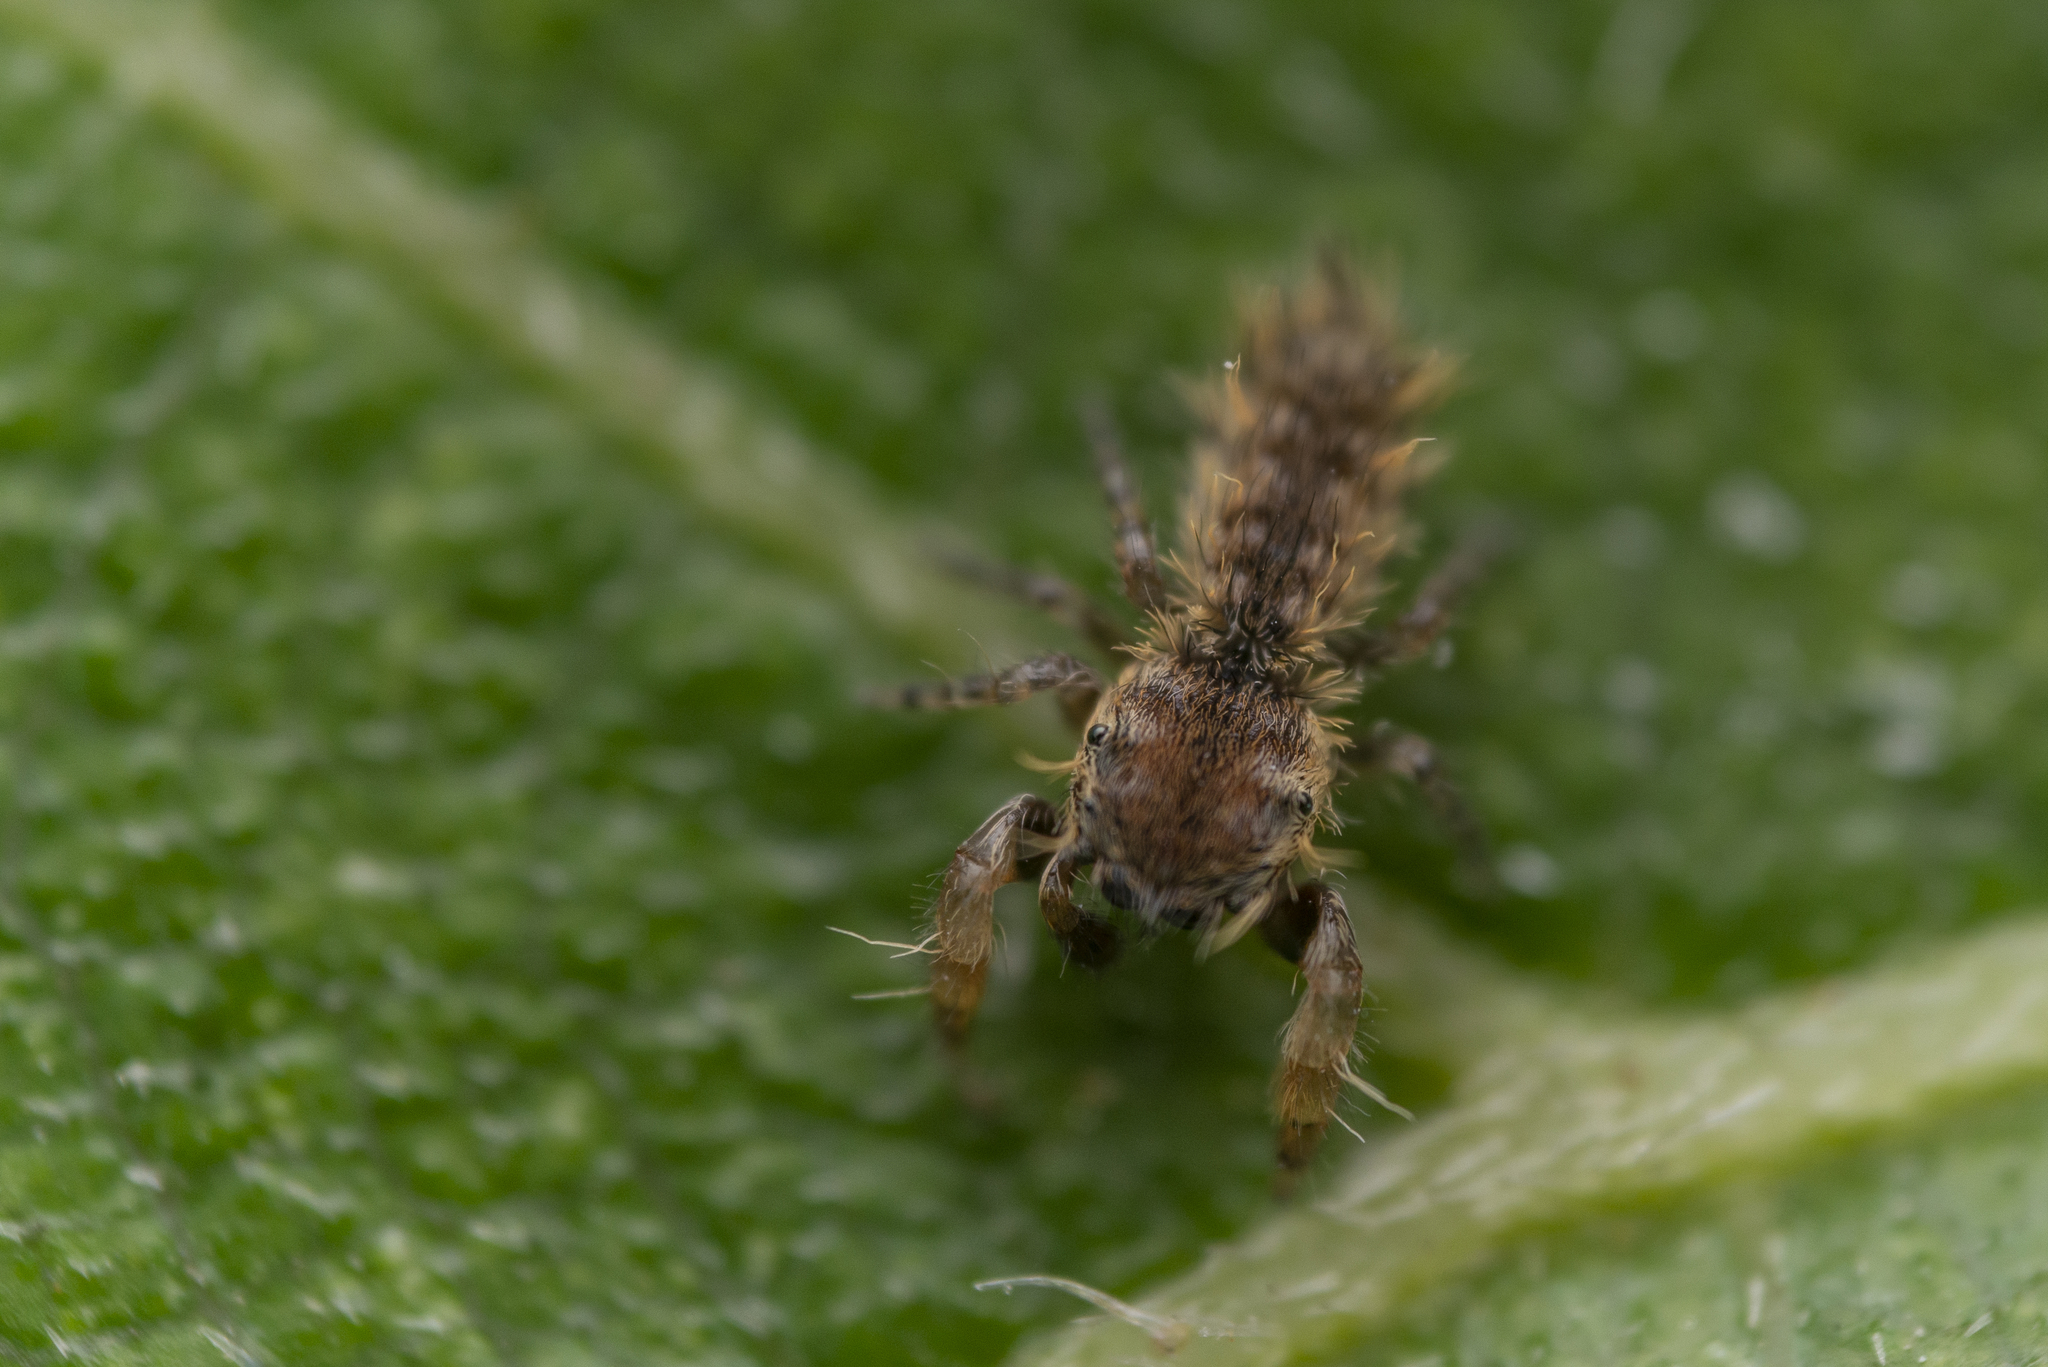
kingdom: Animalia
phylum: Arthropoda
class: Arachnida
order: Araneae
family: Salticidae
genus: Uroballus
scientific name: Uroballus carlei
